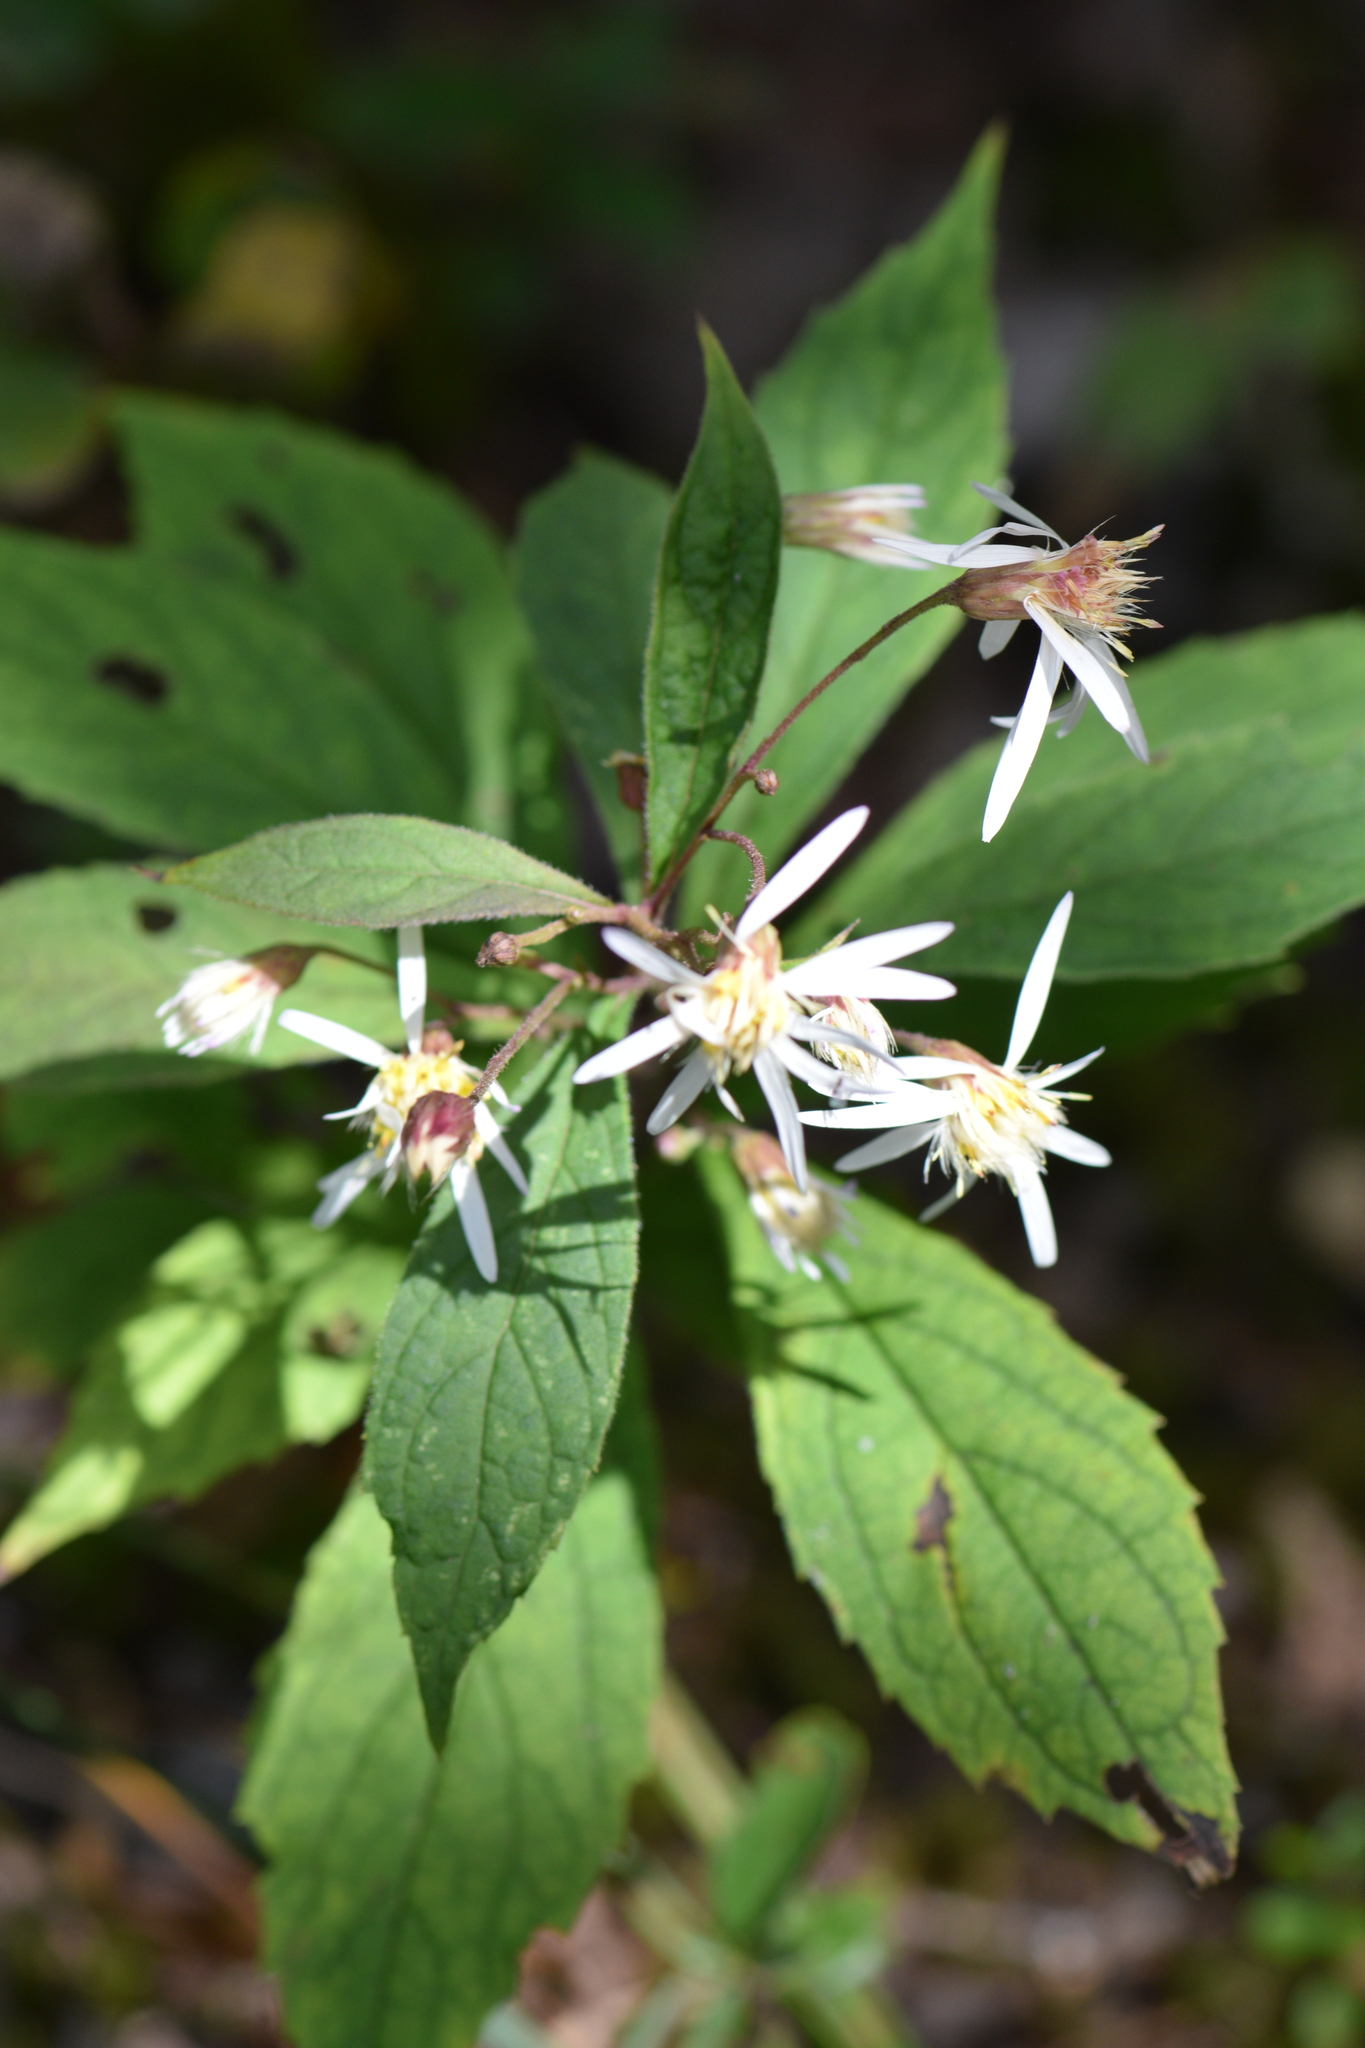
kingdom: Plantae
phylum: Tracheophyta
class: Magnoliopsida
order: Asterales
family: Asteraceae
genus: Oclemena
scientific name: Oclemena acuminata
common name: Mountain aster
